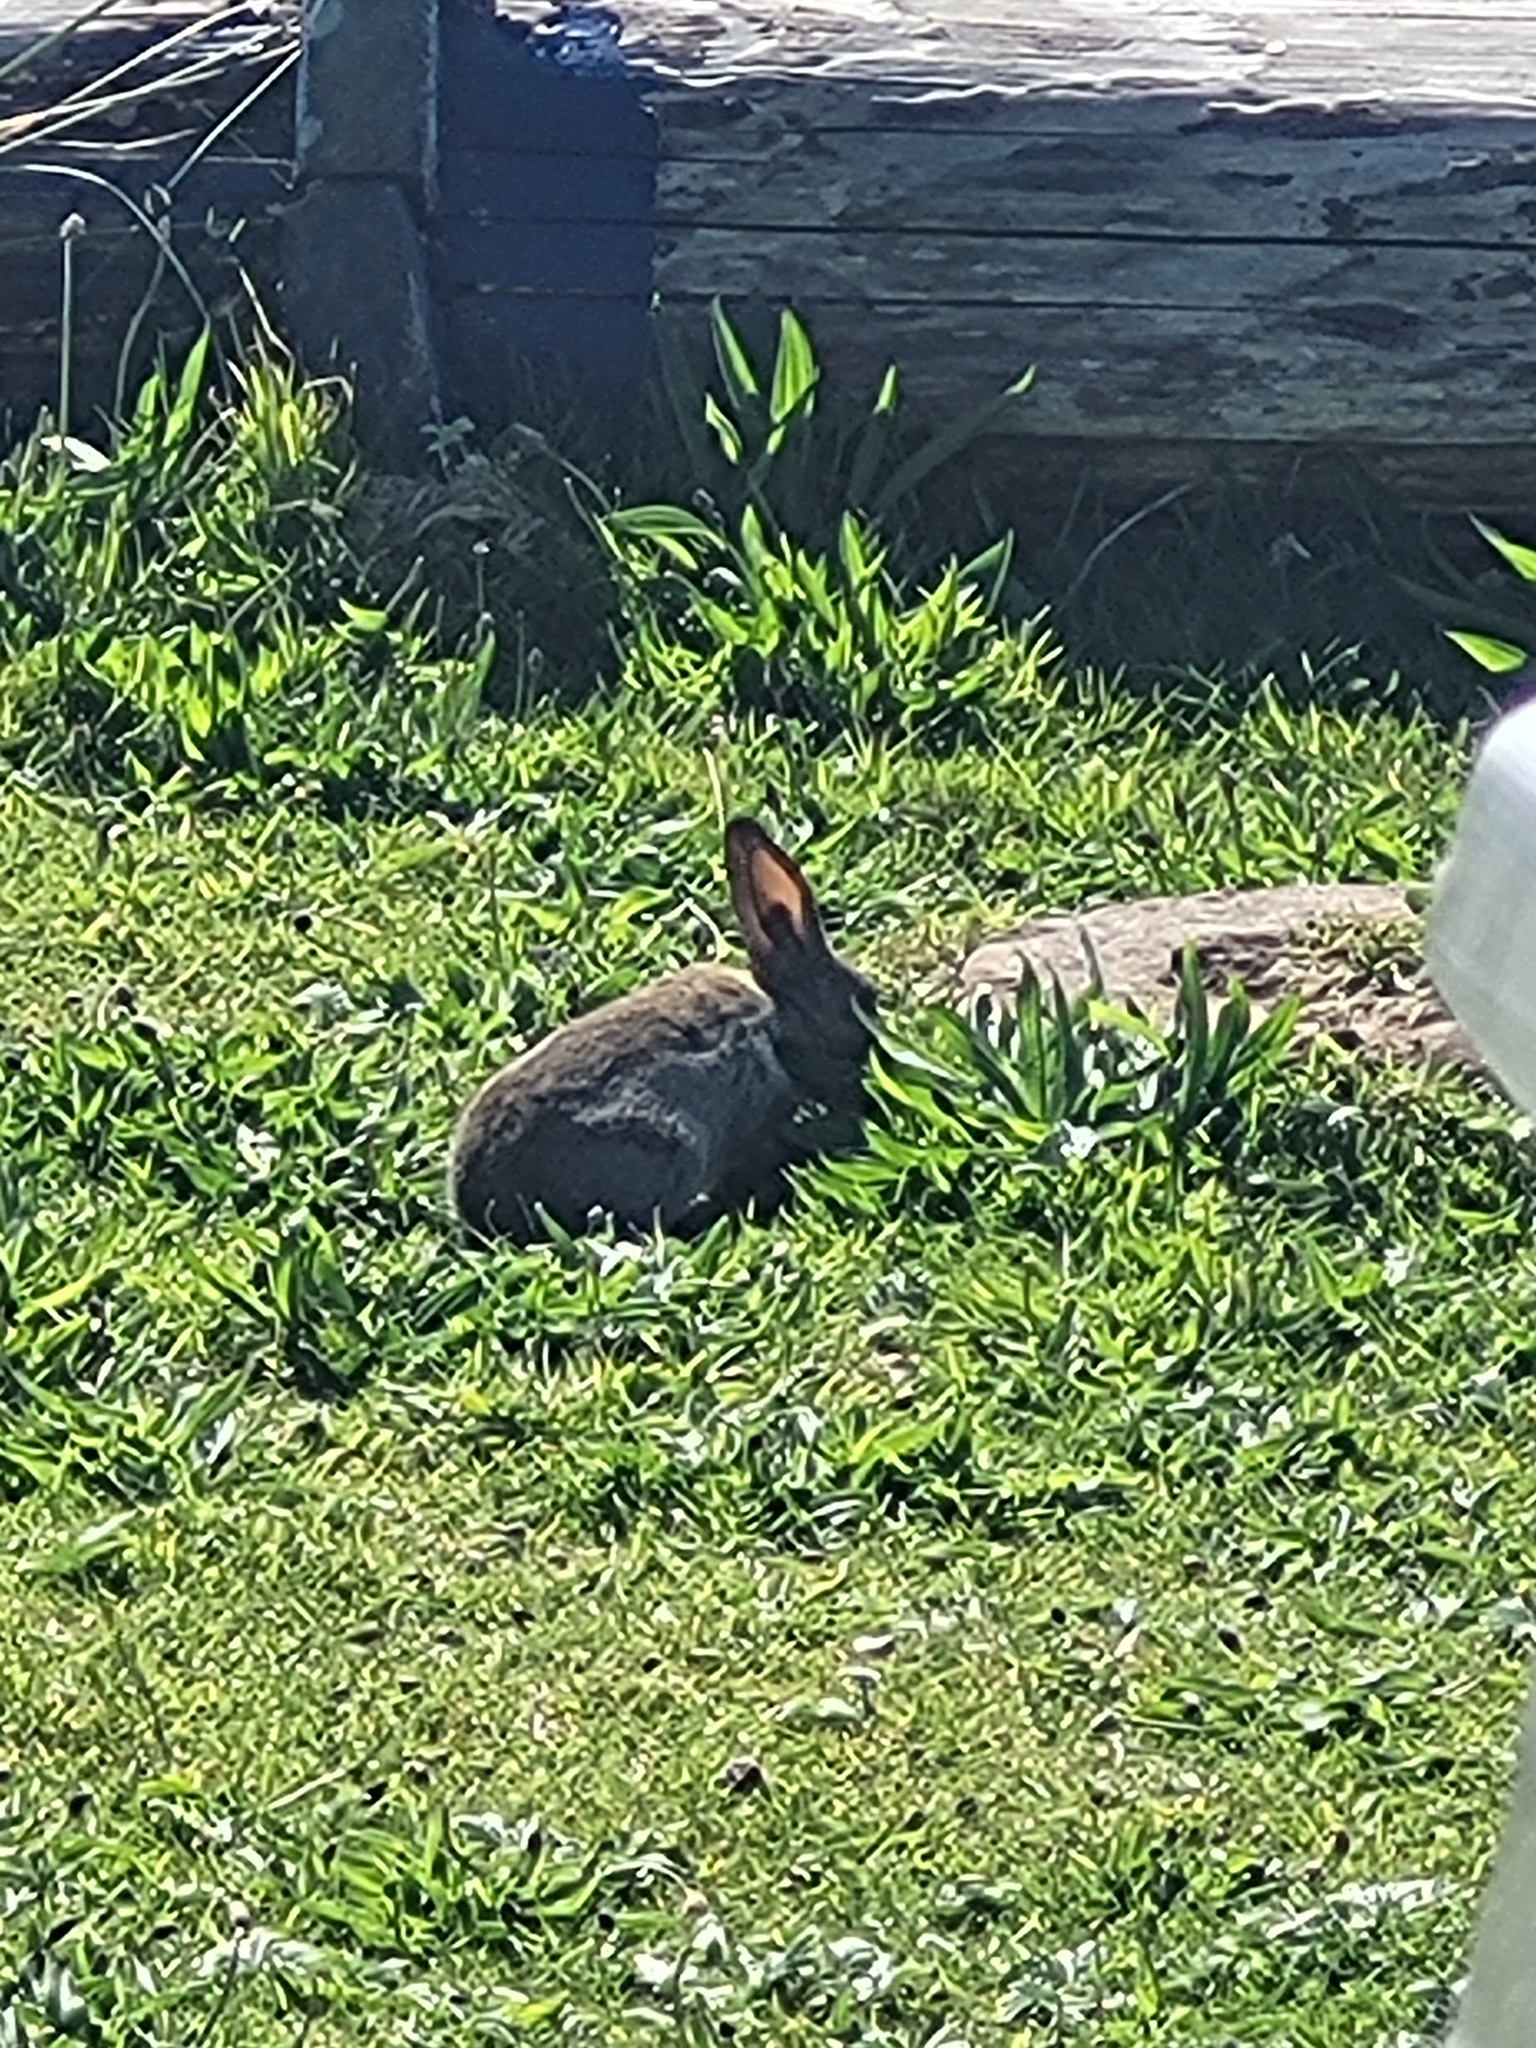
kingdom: Animalia
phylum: Chordata
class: Mammalia
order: Lagomorpha
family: Leporidae
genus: Oryctolagus
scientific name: Oryctolagus cuniculus
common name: European rabbit
